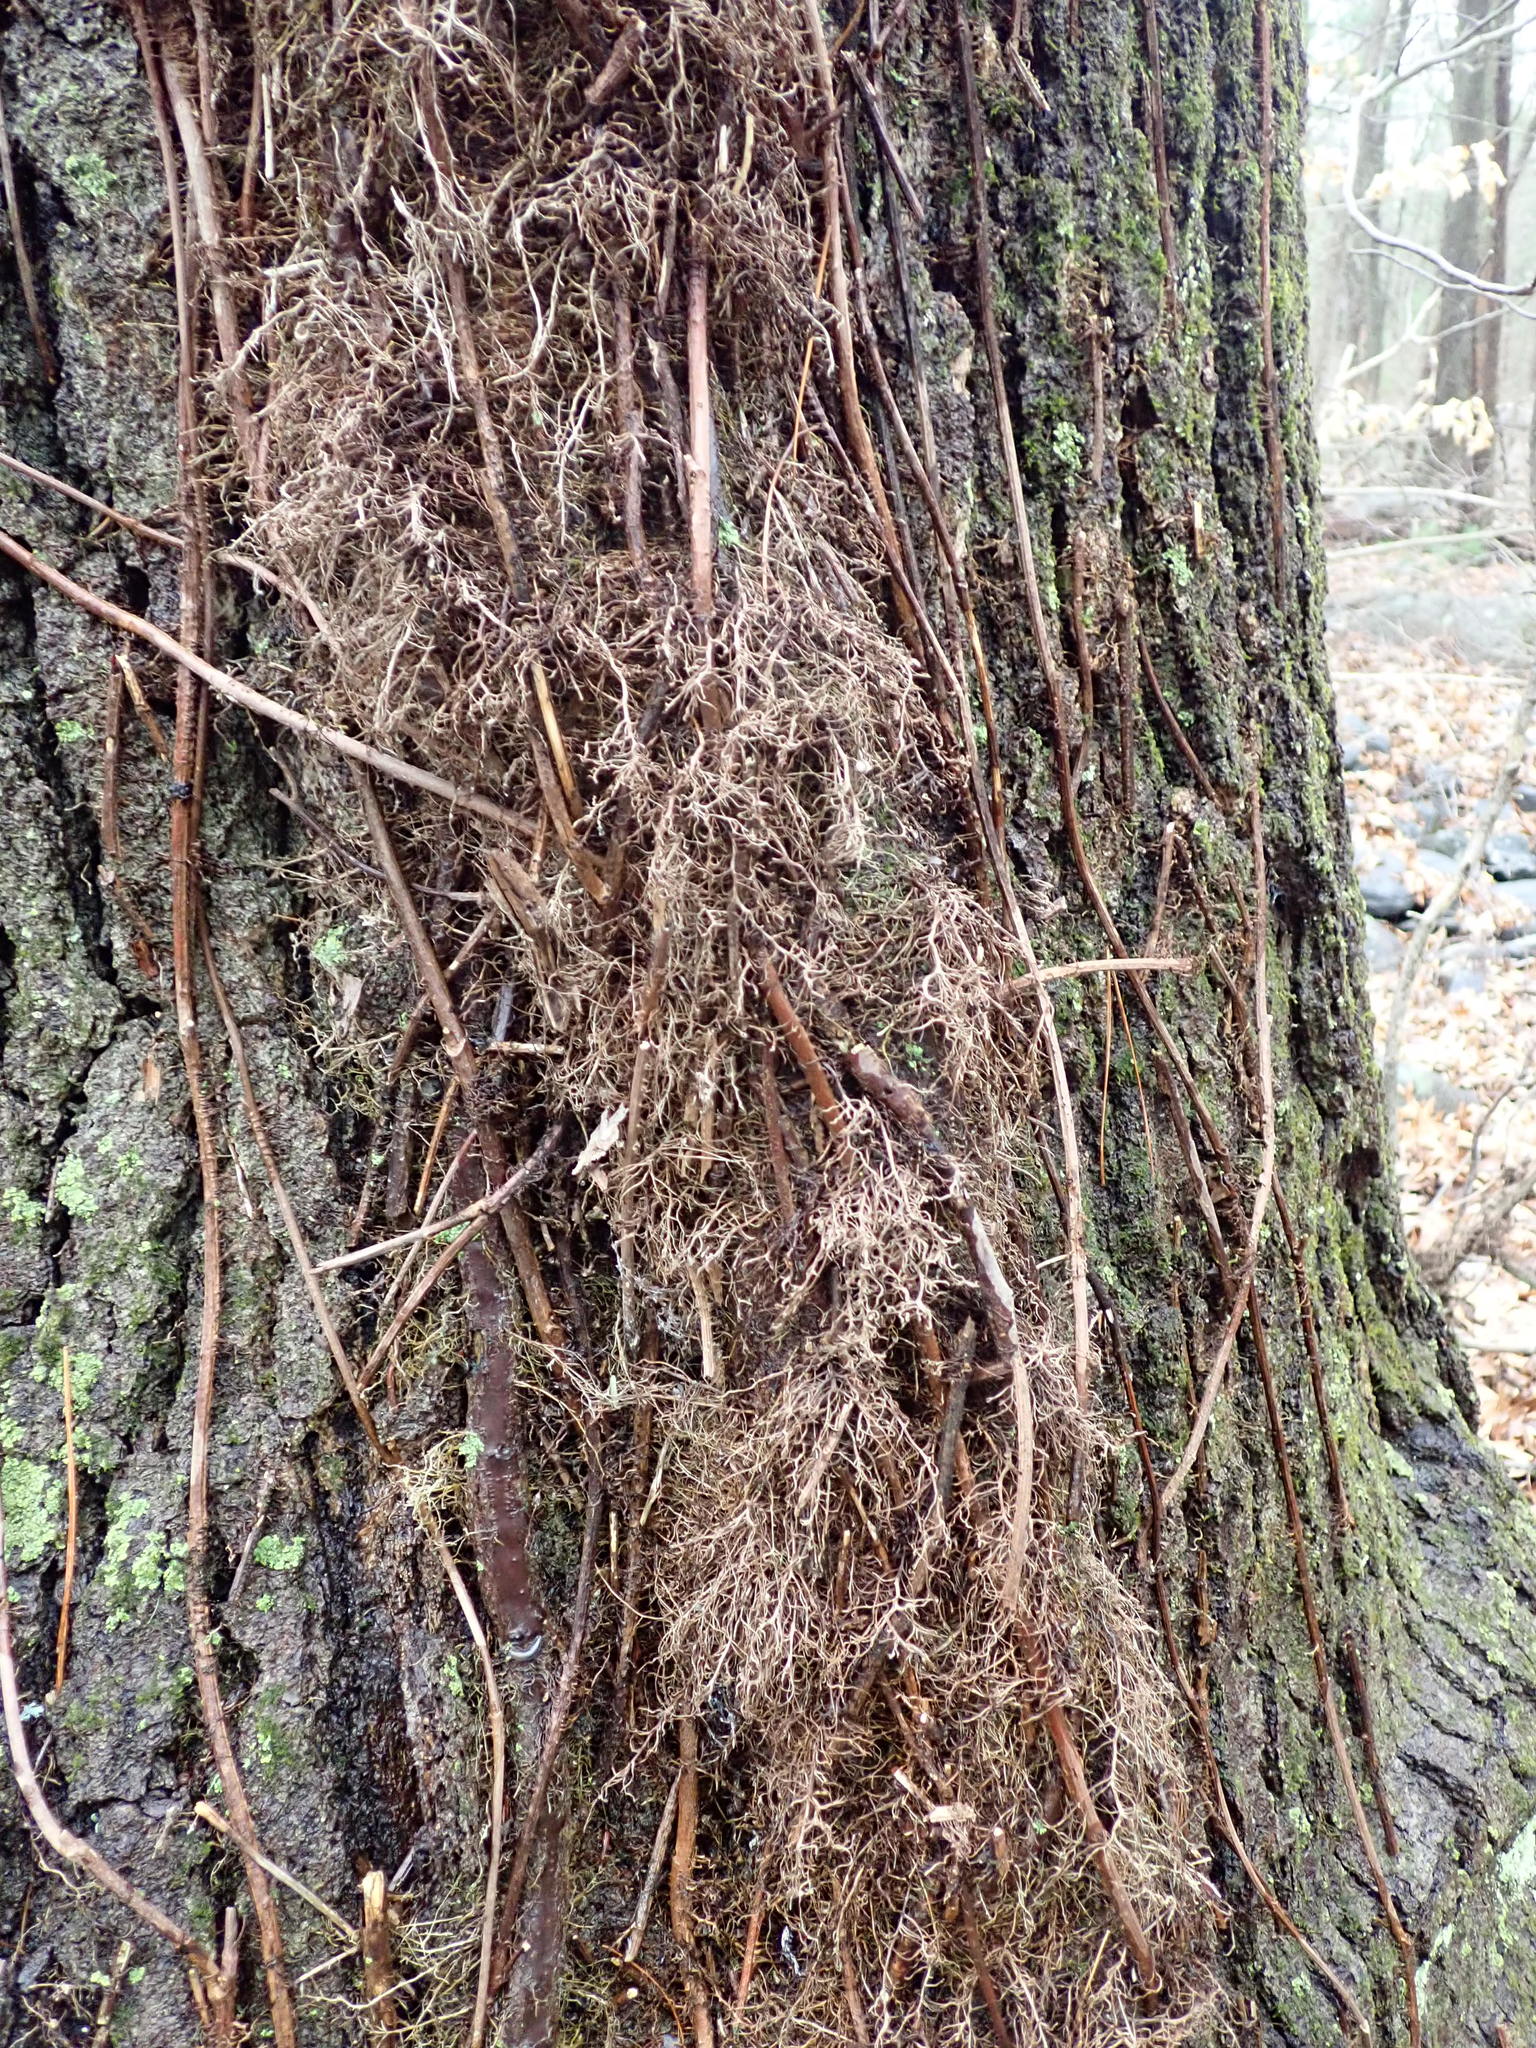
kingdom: Plantae
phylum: Tracheophyta
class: Magnoliopsida
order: Sapindales
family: Anacardiaceae
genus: Toxicodendron
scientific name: Toxicodendron radicans
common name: Poison ivy
